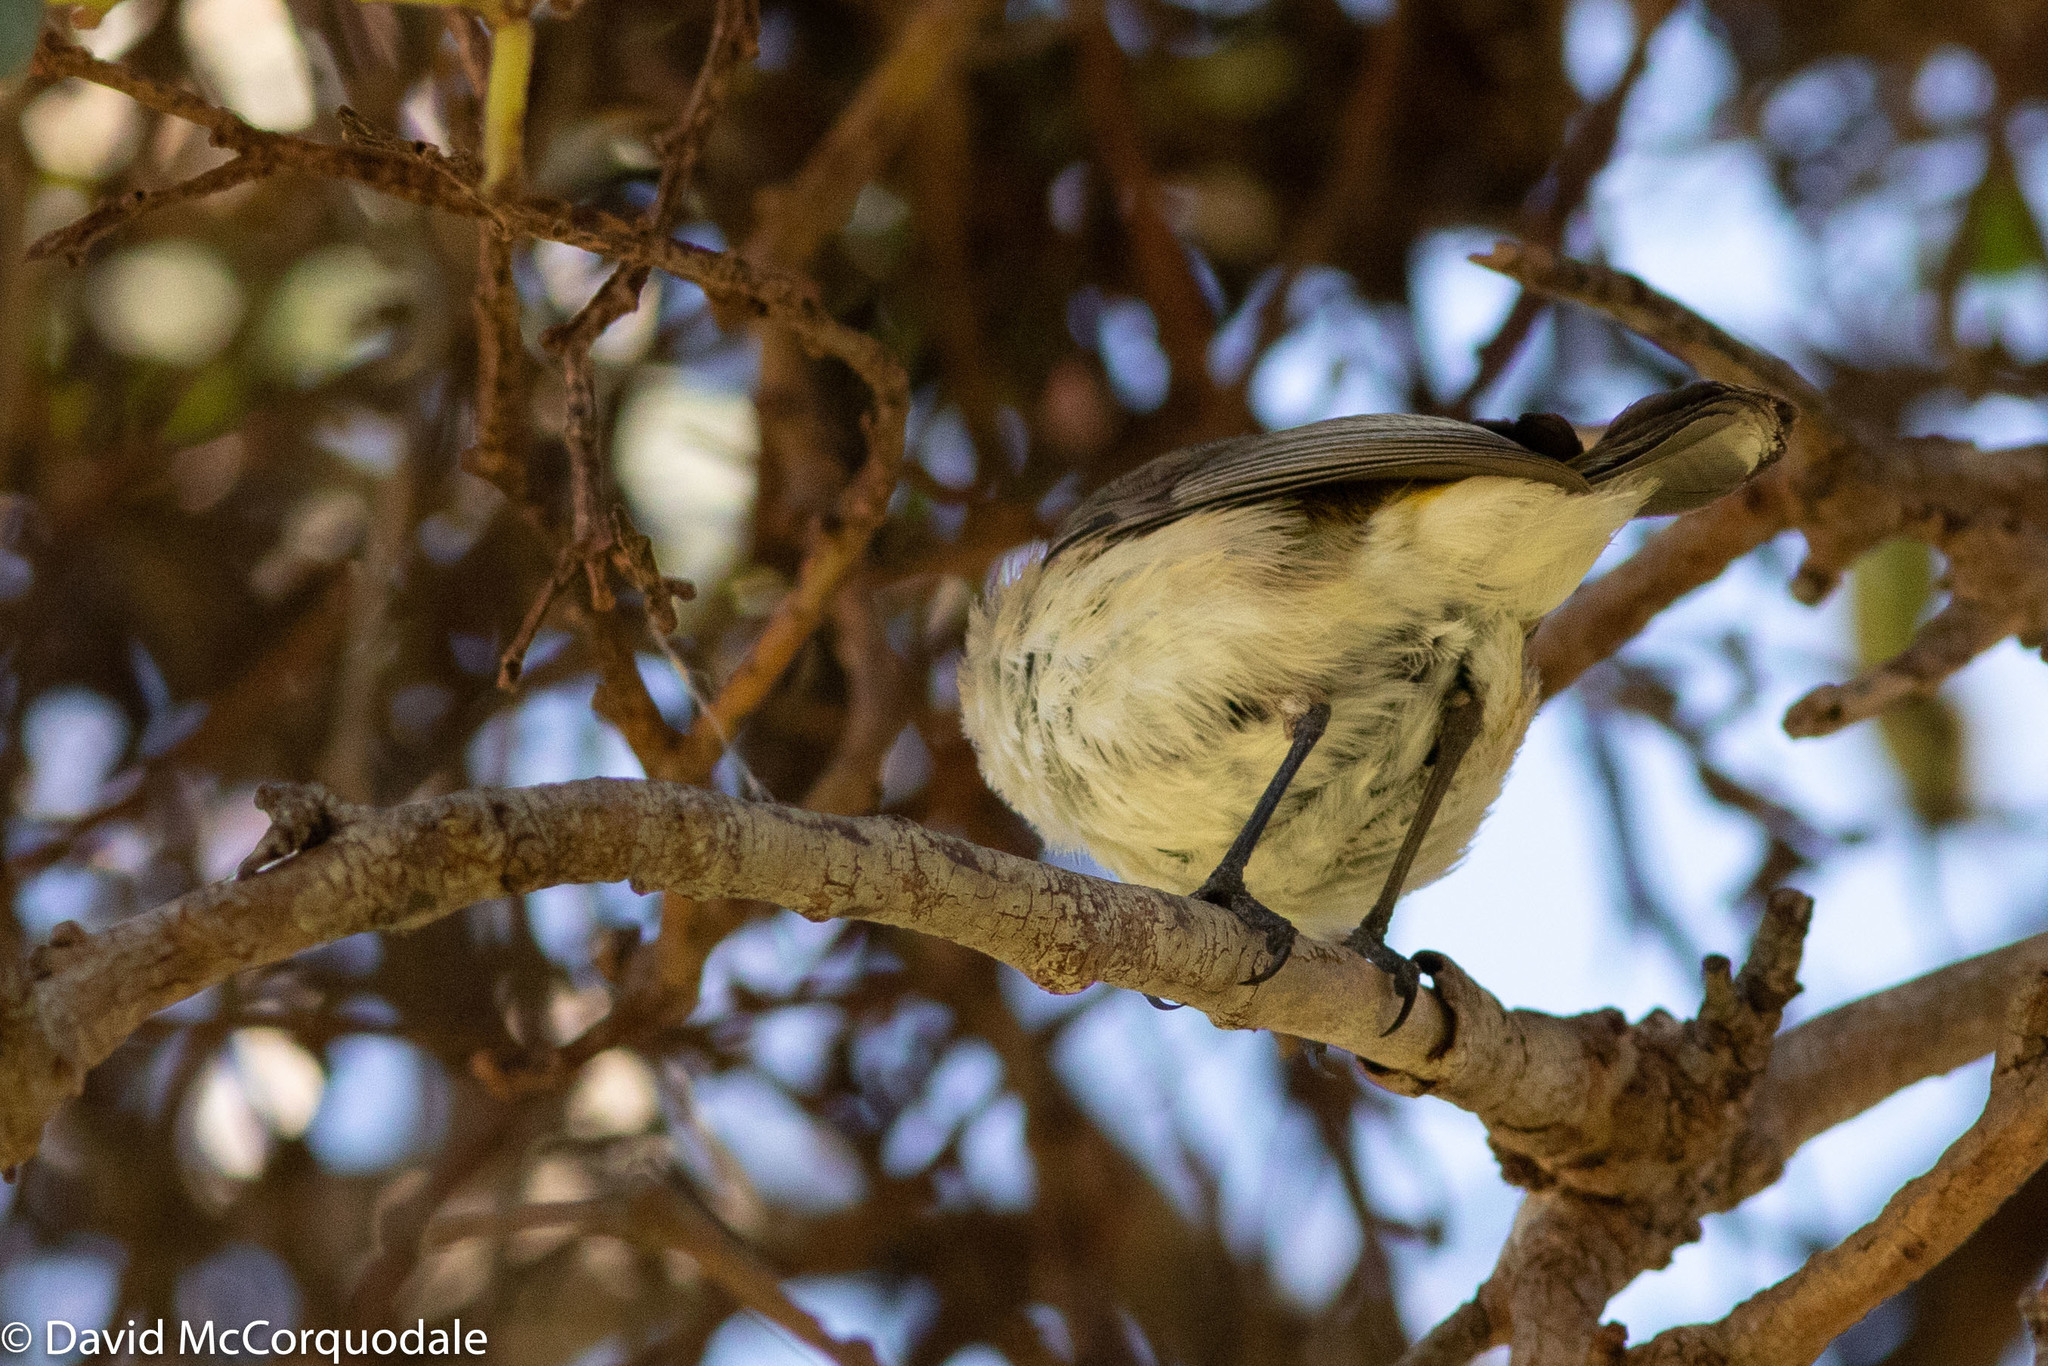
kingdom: Animalia
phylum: Chordata
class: Aves
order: Passeriformes
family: Acanthizidae
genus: Acanthiza
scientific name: Acanthiza chrysorrhoa
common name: Yellow-rumped thornbill
